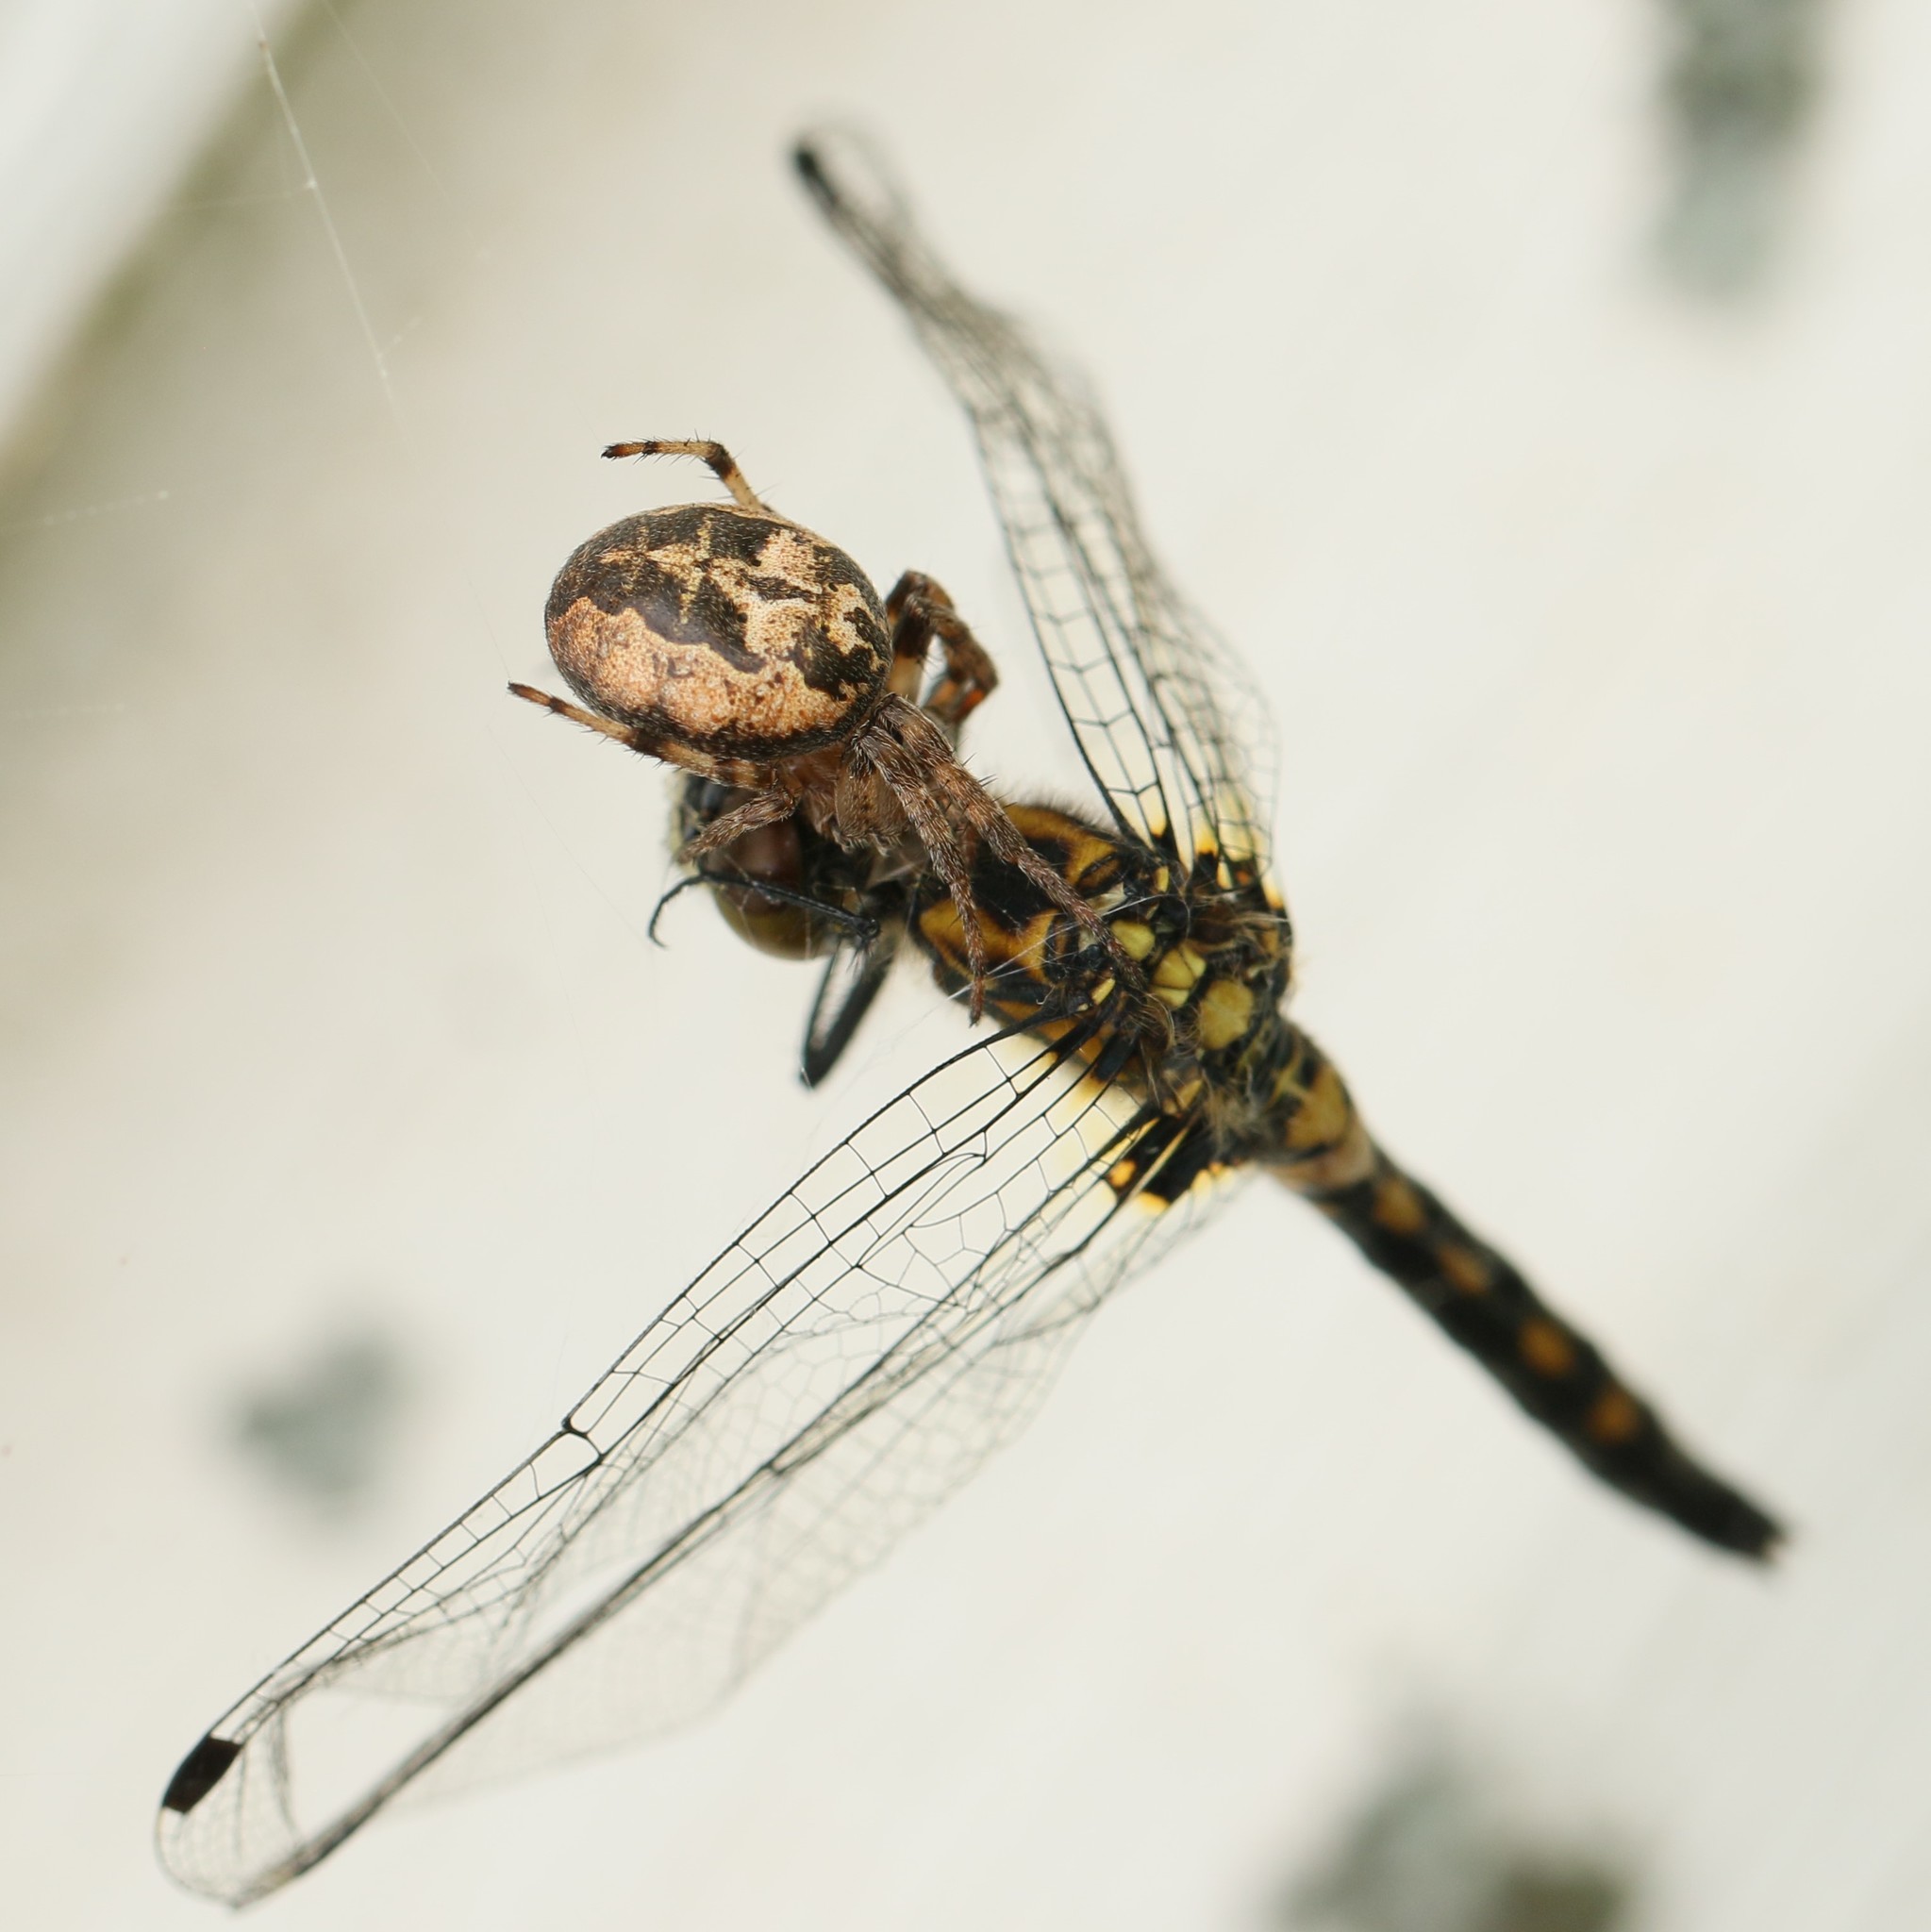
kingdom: Animalia
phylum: Arthropoda
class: Arachnida
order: Araneae
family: Araneidae
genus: Larinioides
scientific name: Larinioides cornutus
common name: Furrow orbweaver
